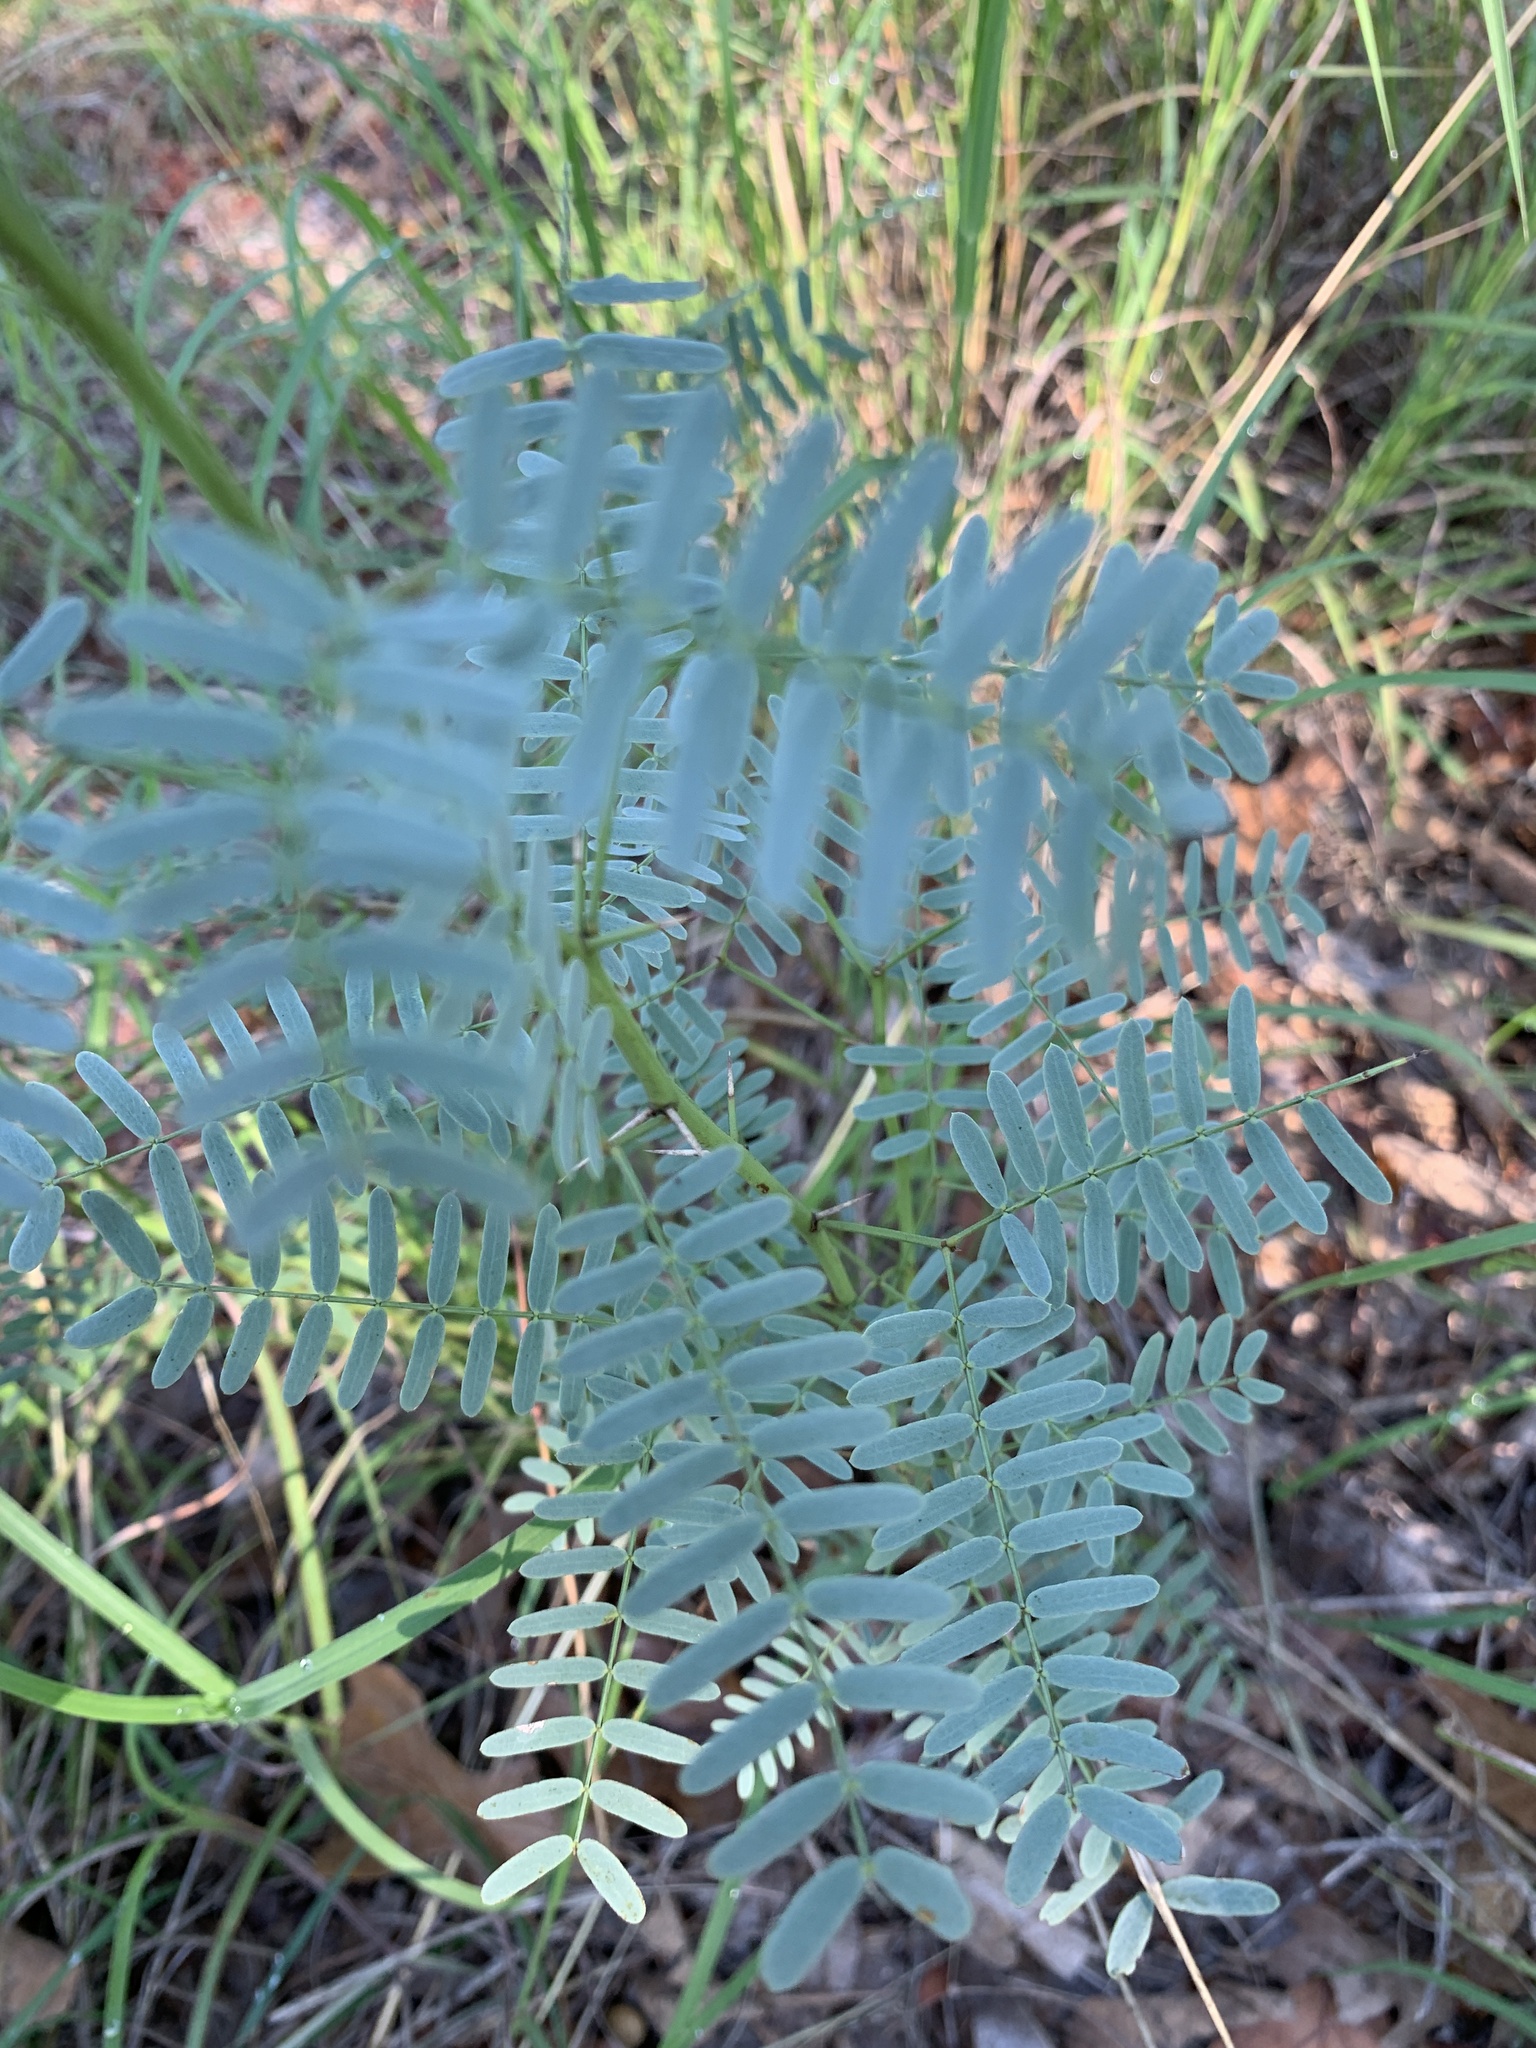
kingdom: Plantae
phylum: Tracheophyta
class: Magnoliopsida
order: Fabales
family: Fabaceae
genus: Prosopis
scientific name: Prosopis glandulosa
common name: Honey mesquite
